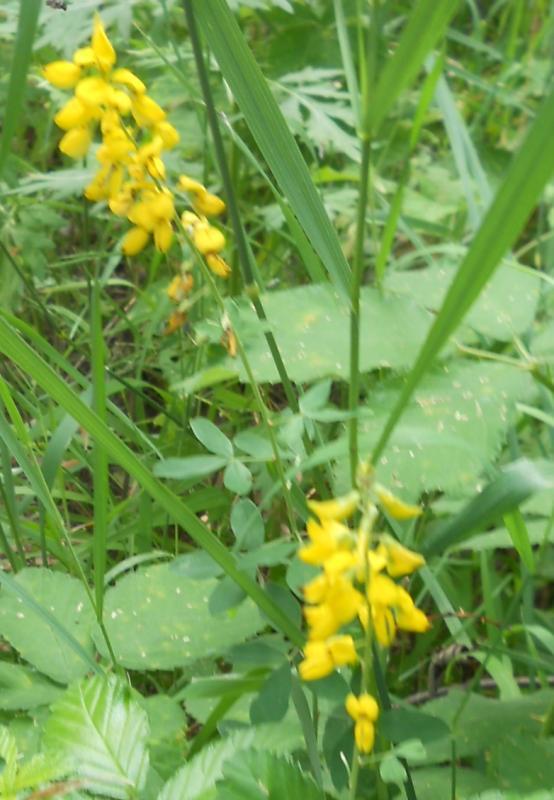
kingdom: Plantae
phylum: Tracheophyta
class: Magnoliopsida
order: Fabales
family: Fabaceae
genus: Cytisus
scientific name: Cytisus nigricans
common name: Black broom
